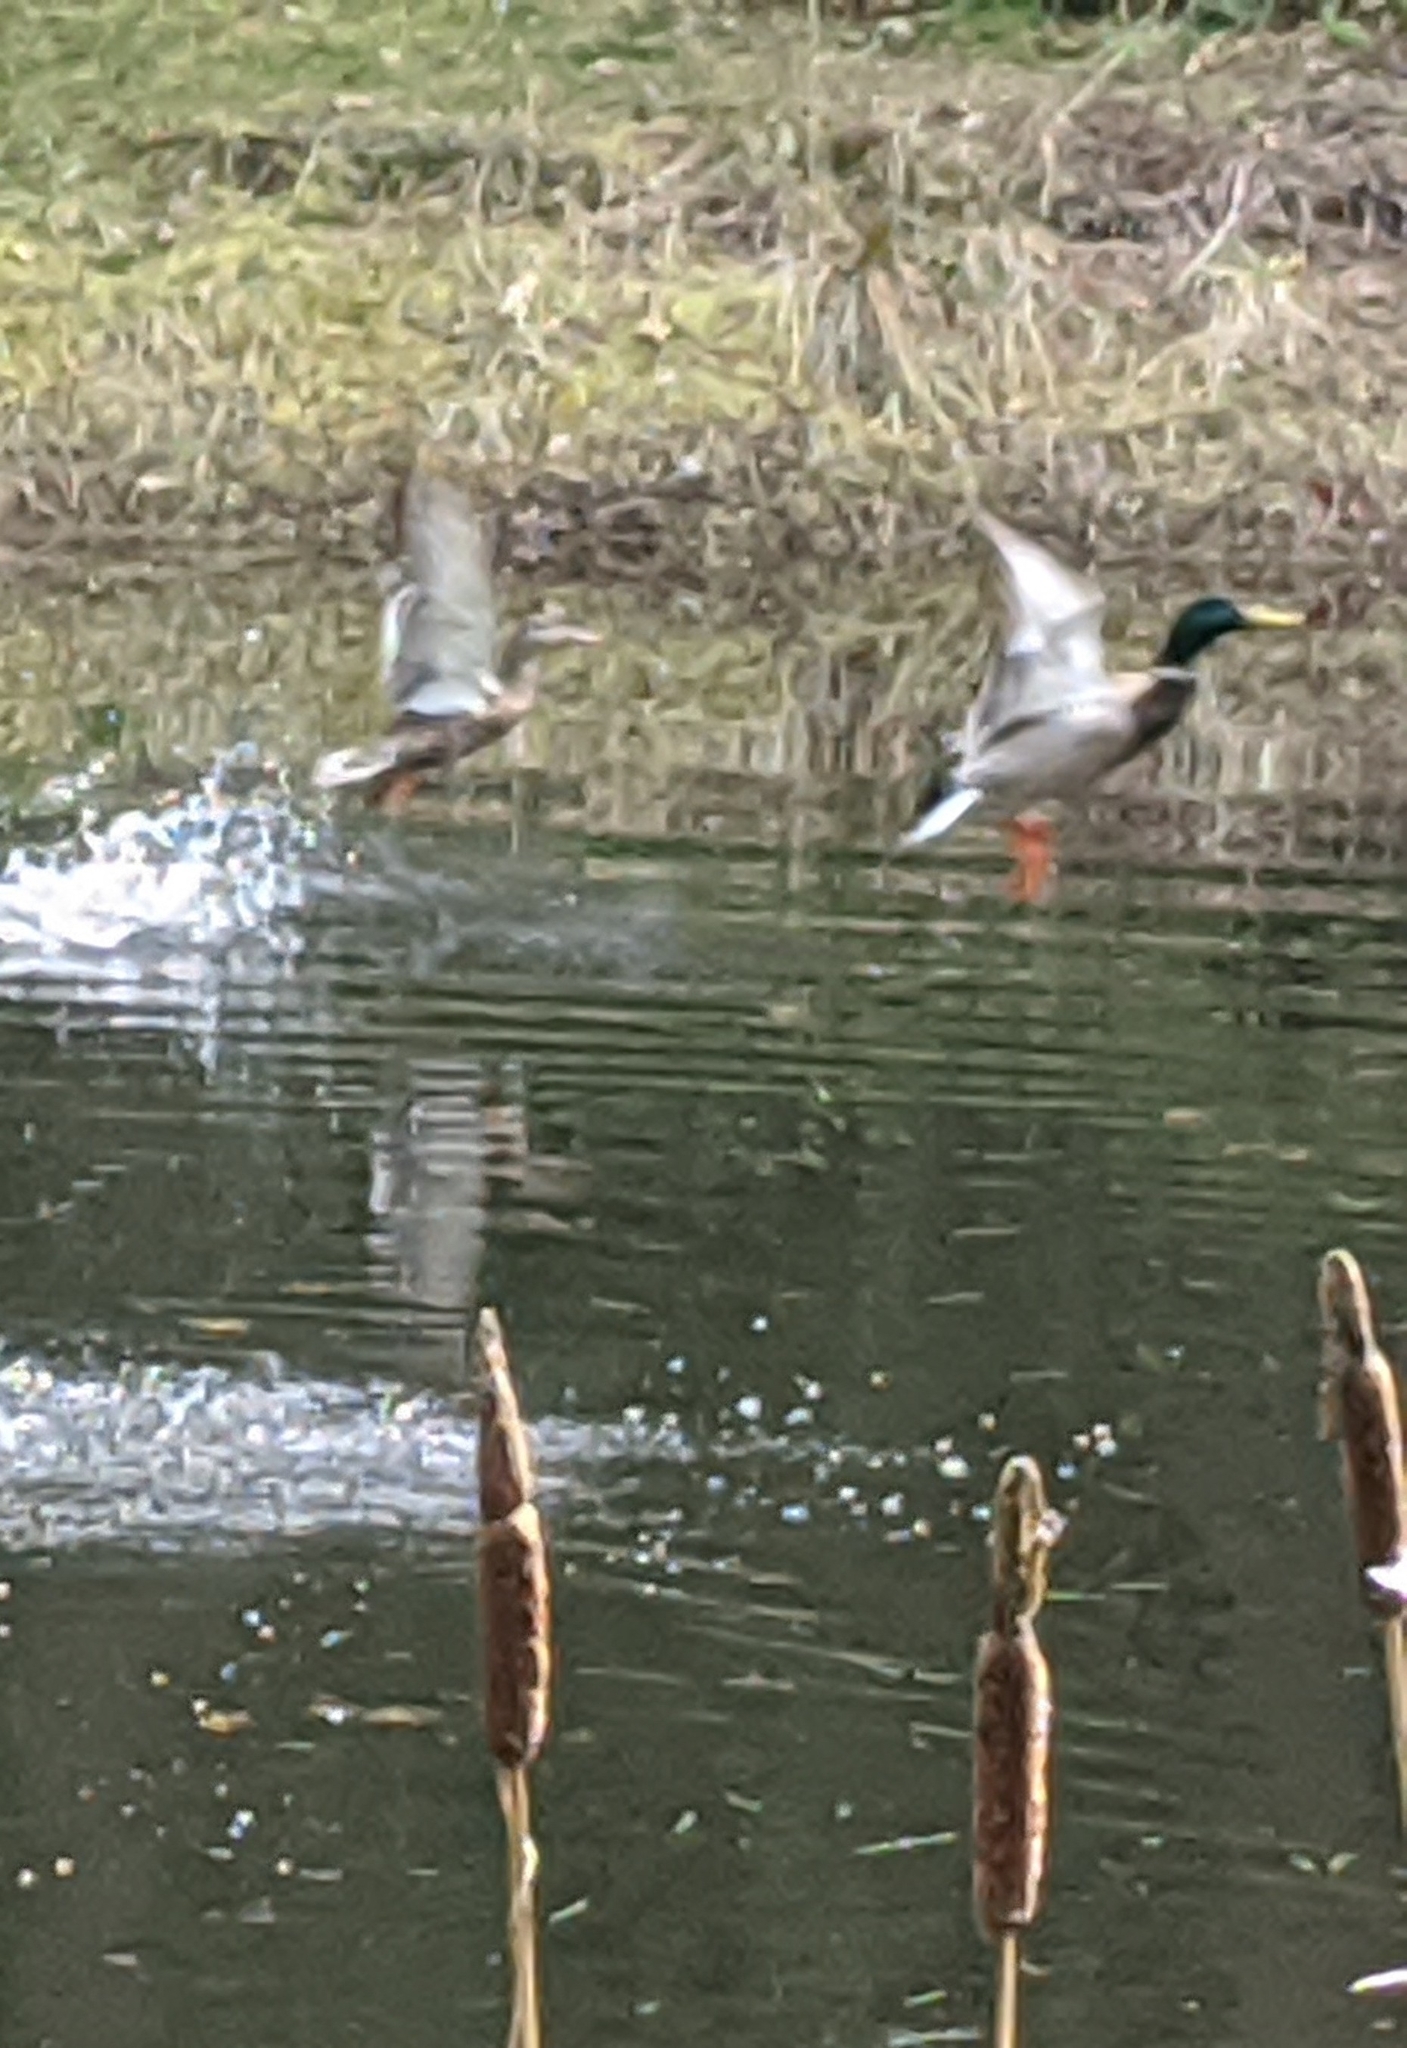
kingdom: Animalia
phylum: Chordata
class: Aves
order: Anseriformes
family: Anatidae
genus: Anas
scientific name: Anas platyrhynchos
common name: Mallard
